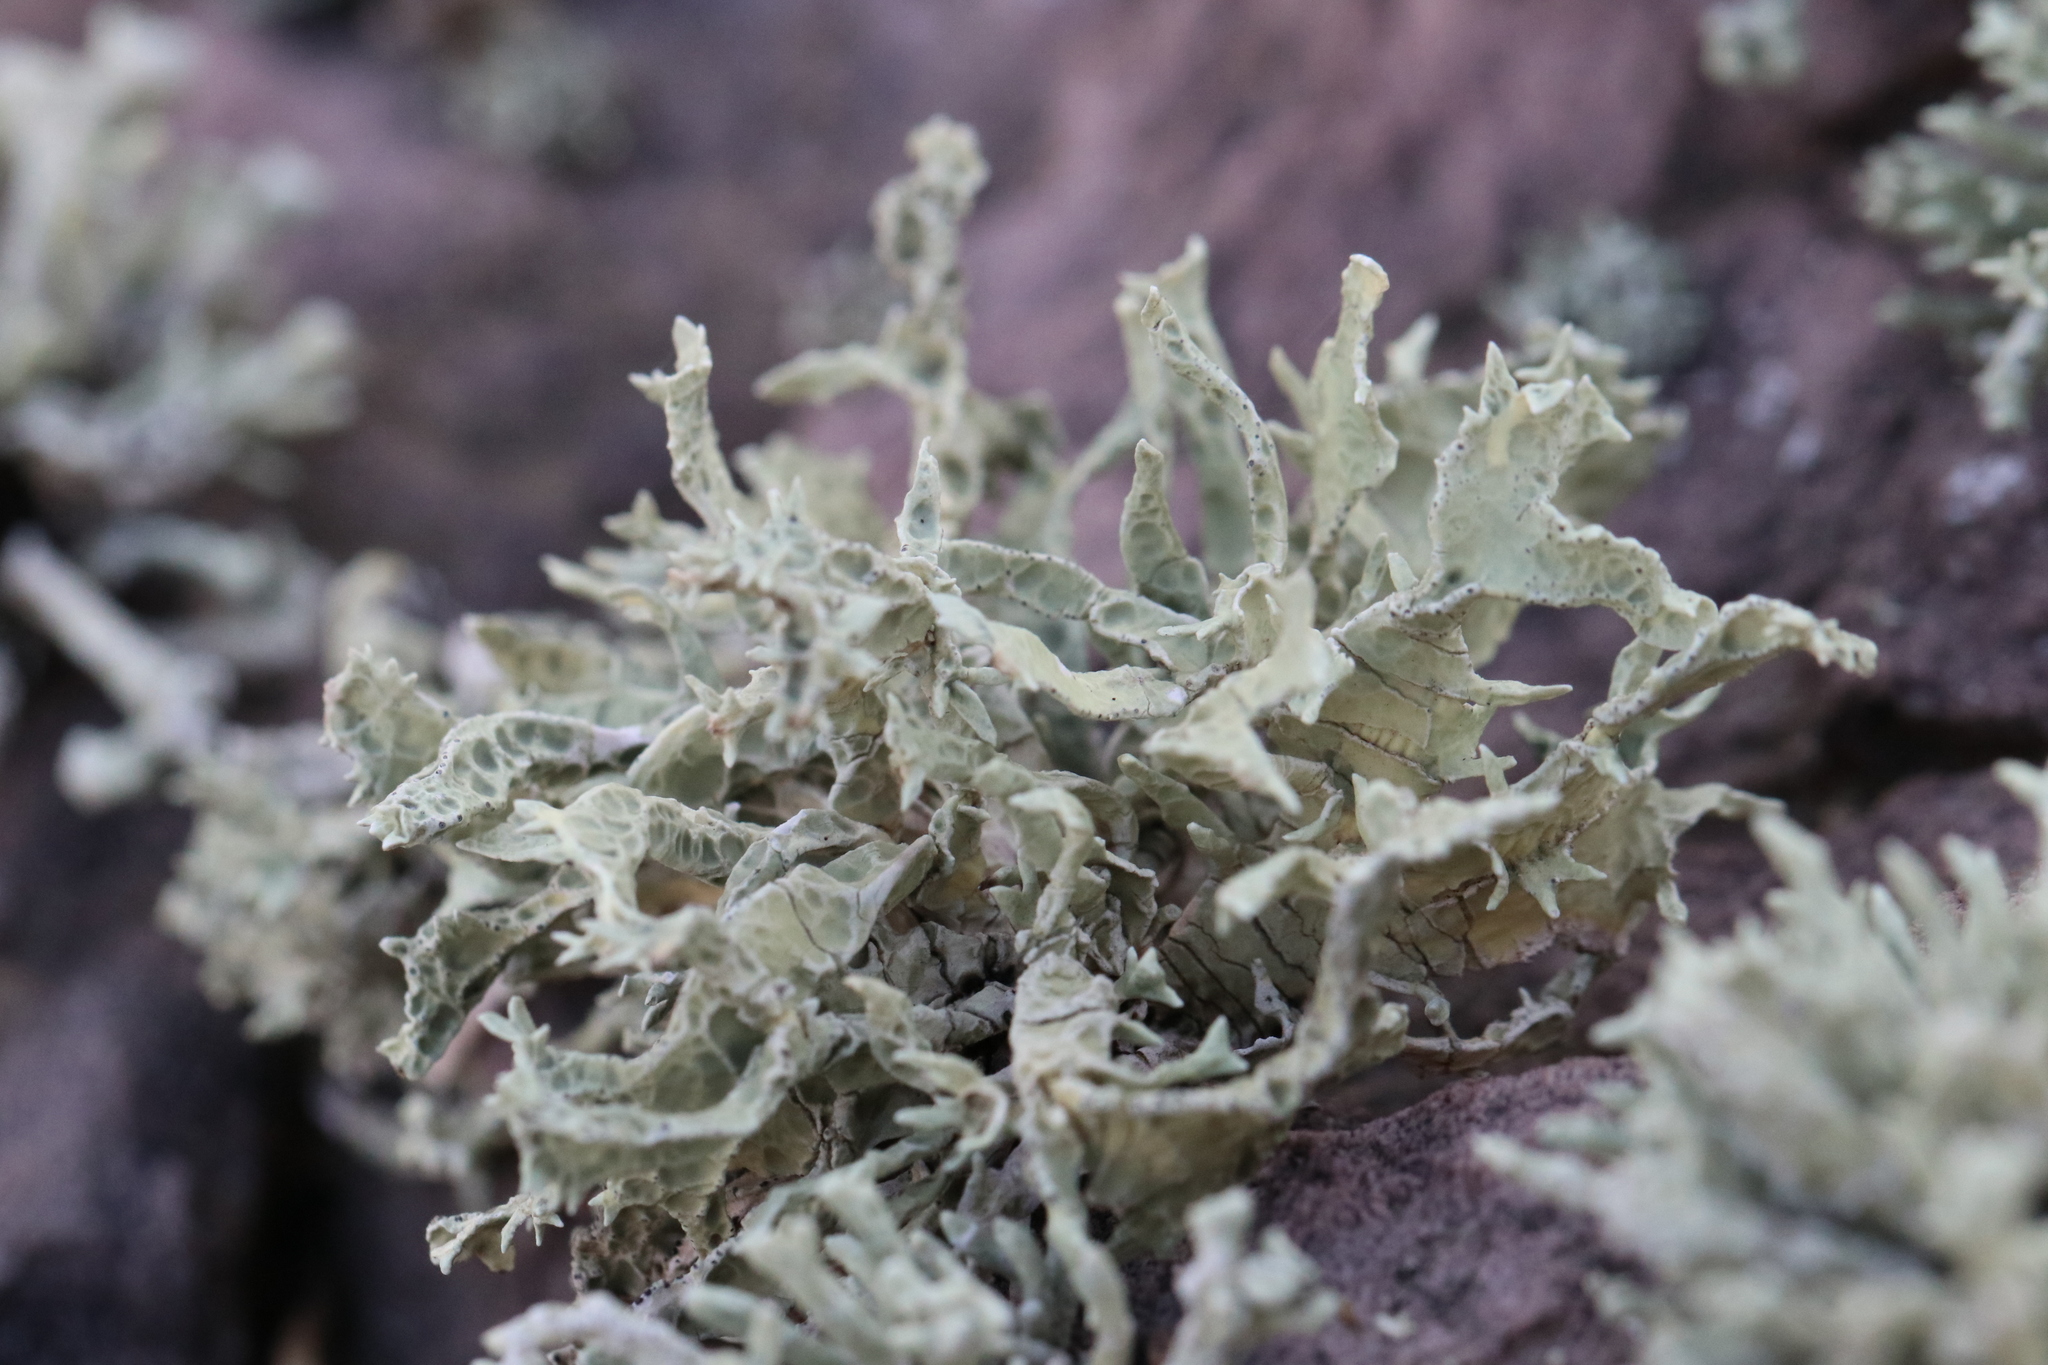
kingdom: Fungi
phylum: Ascomycota
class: Lecanoromycetes
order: Lecanorales
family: Ramalinaceae
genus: Niebla
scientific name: Niebla homalea
